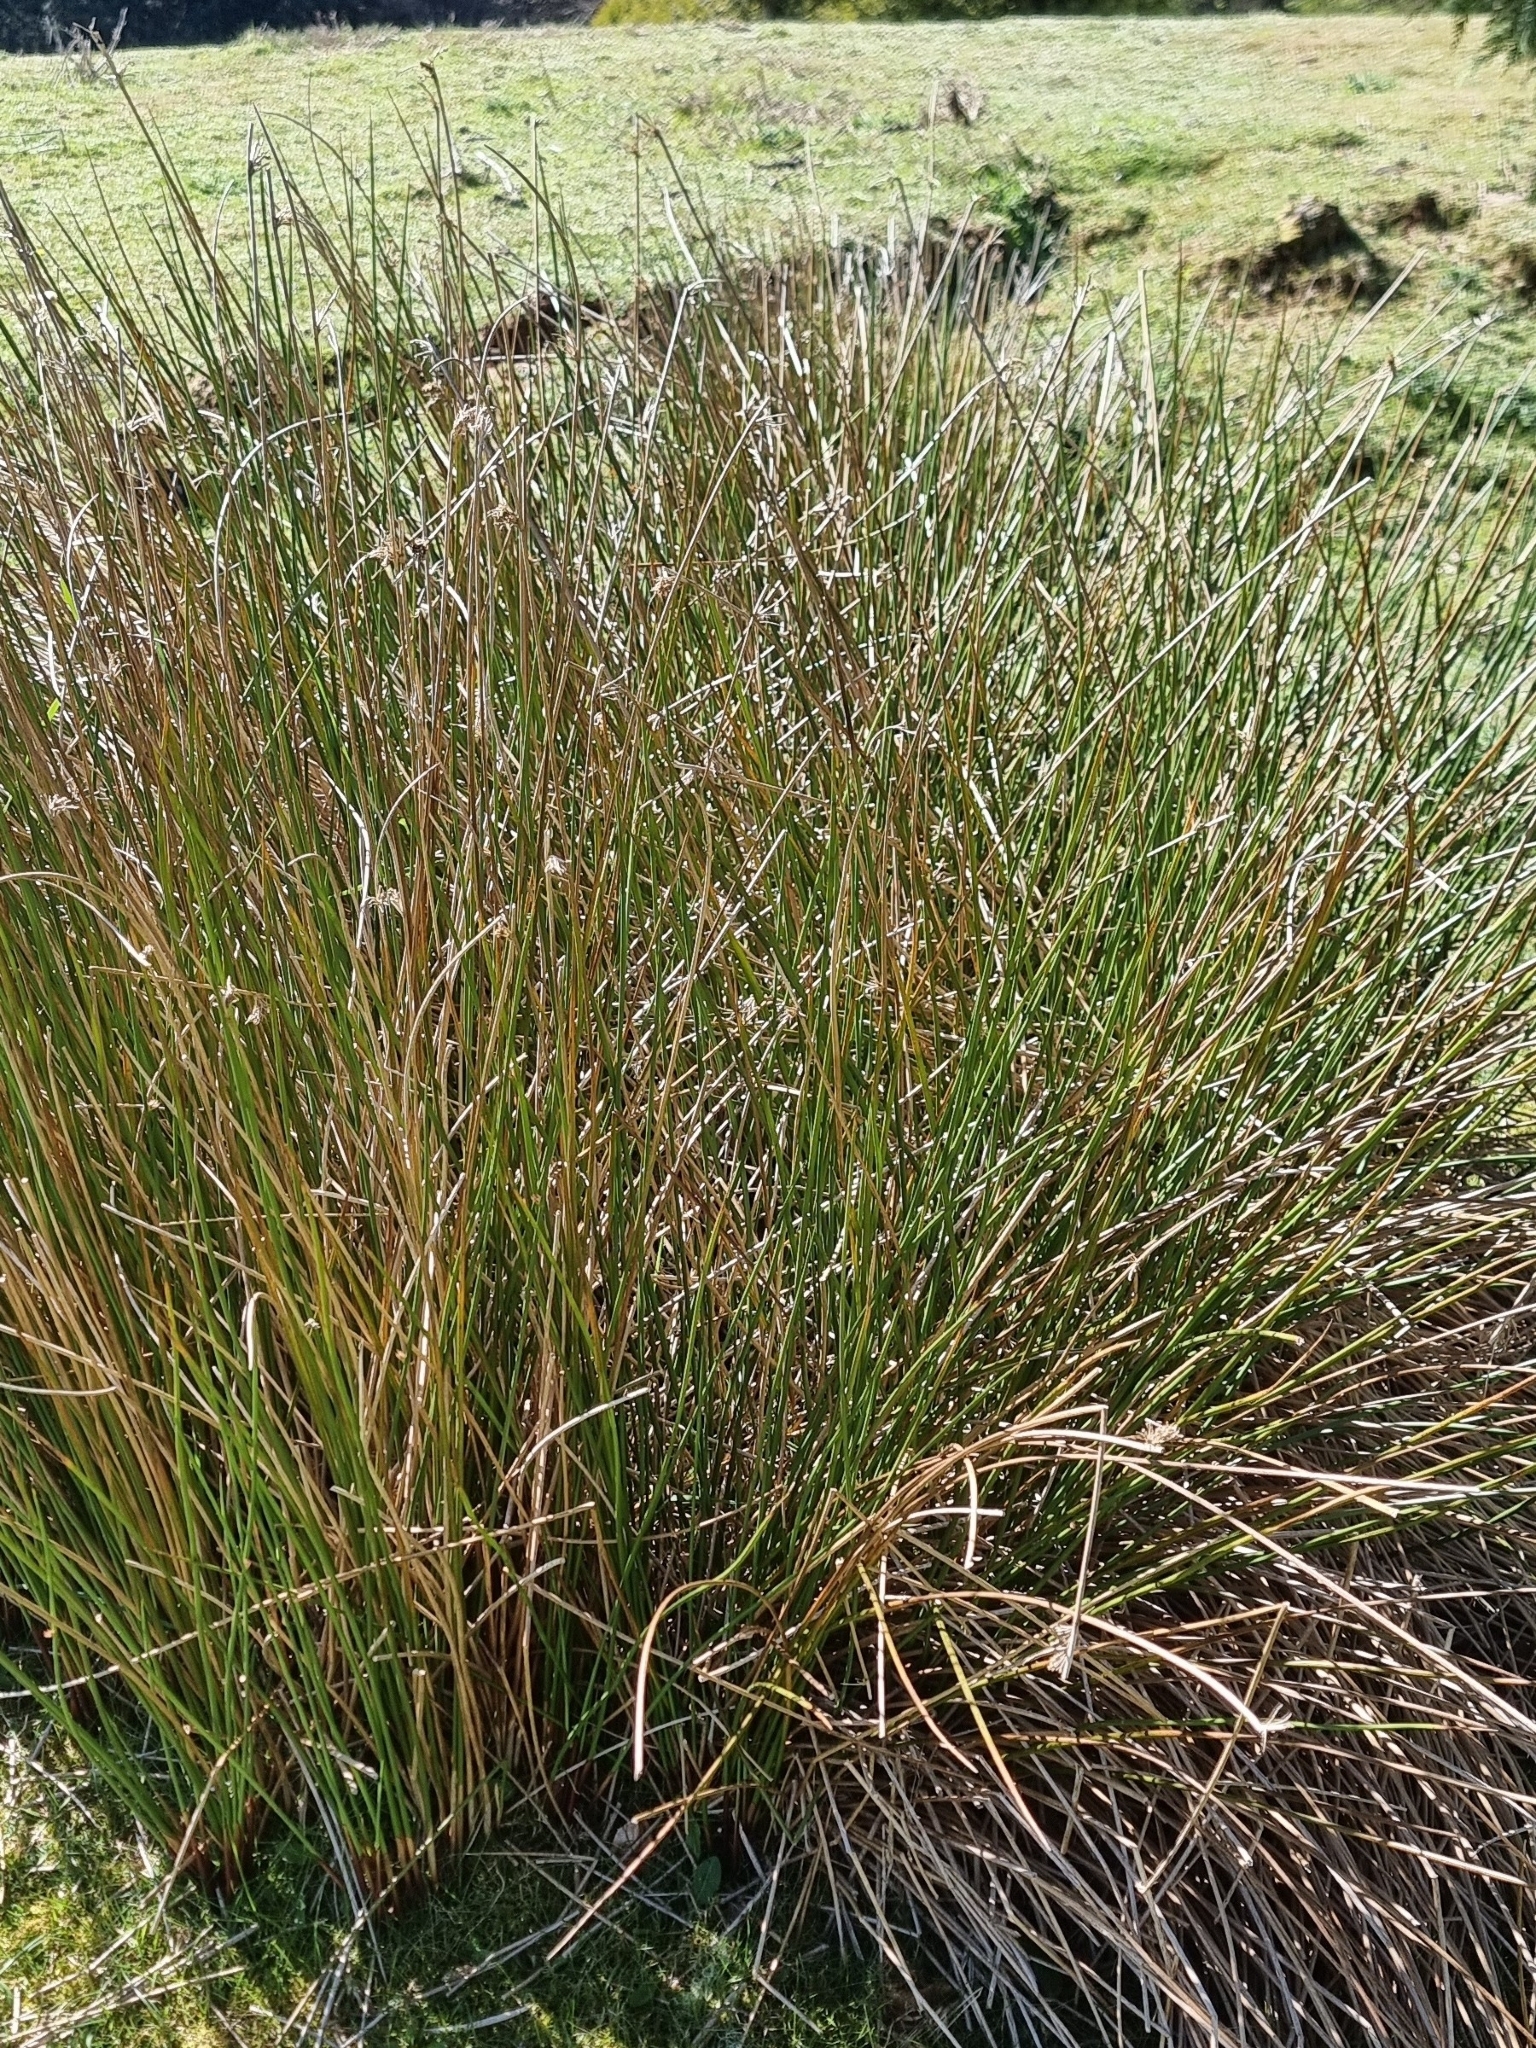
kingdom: Plantae
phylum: Tracheophyta
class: Liliopsida
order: Poales
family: Juncaceae
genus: Juncus
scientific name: Juncus effusus
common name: Soft rush
